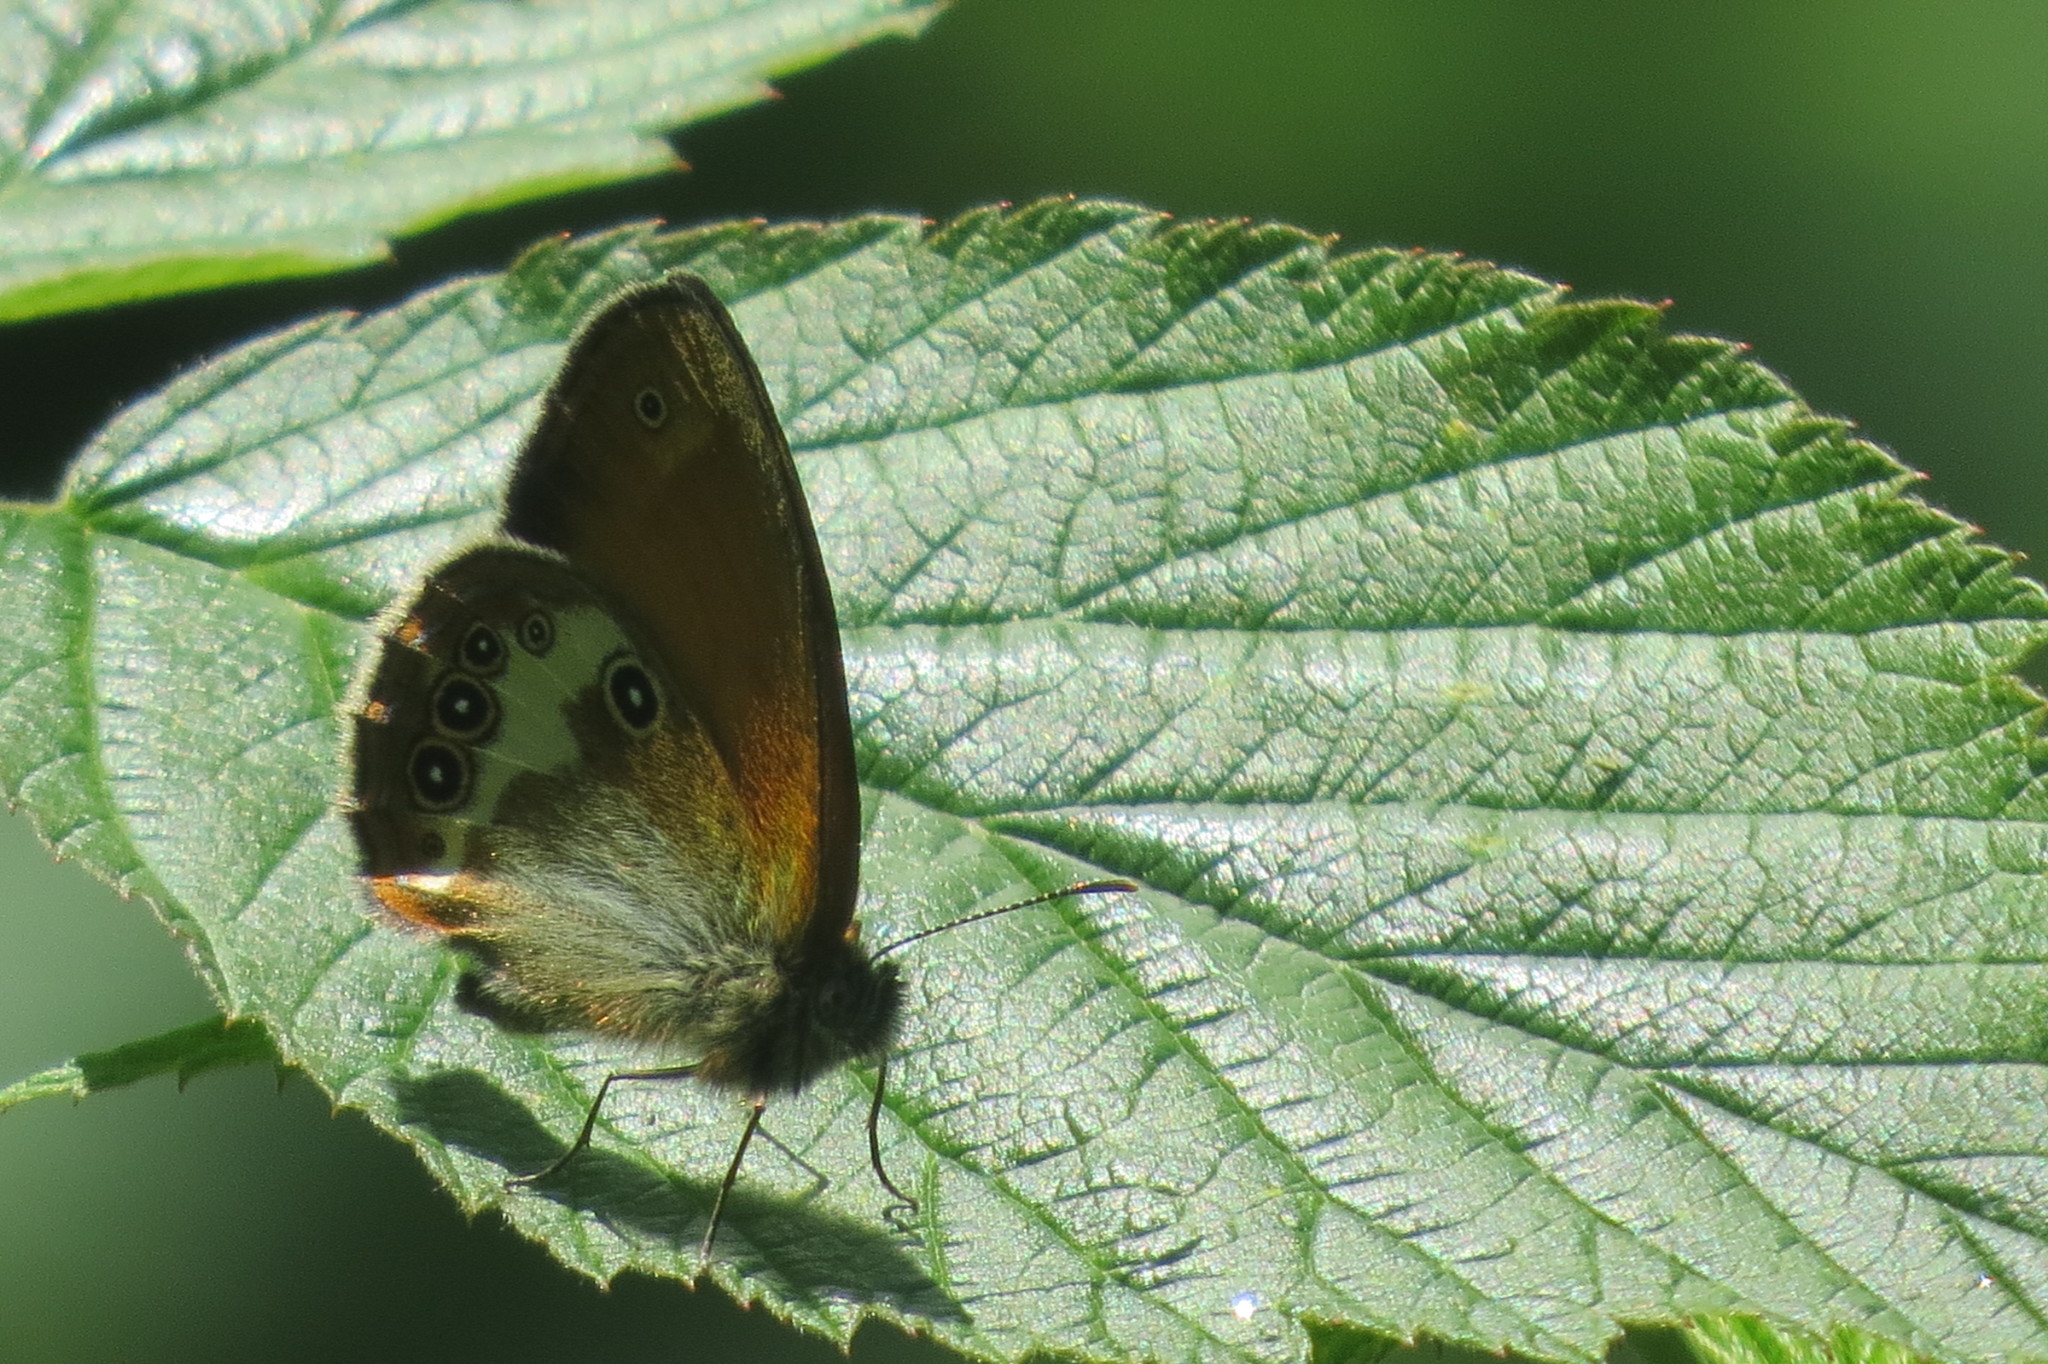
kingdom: Animalia
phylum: Arthropoda
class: Insecta
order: Lepidoptera
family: Nymphalidae
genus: Coenonympha
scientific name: Coenonympha arcania
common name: Pearly heath
